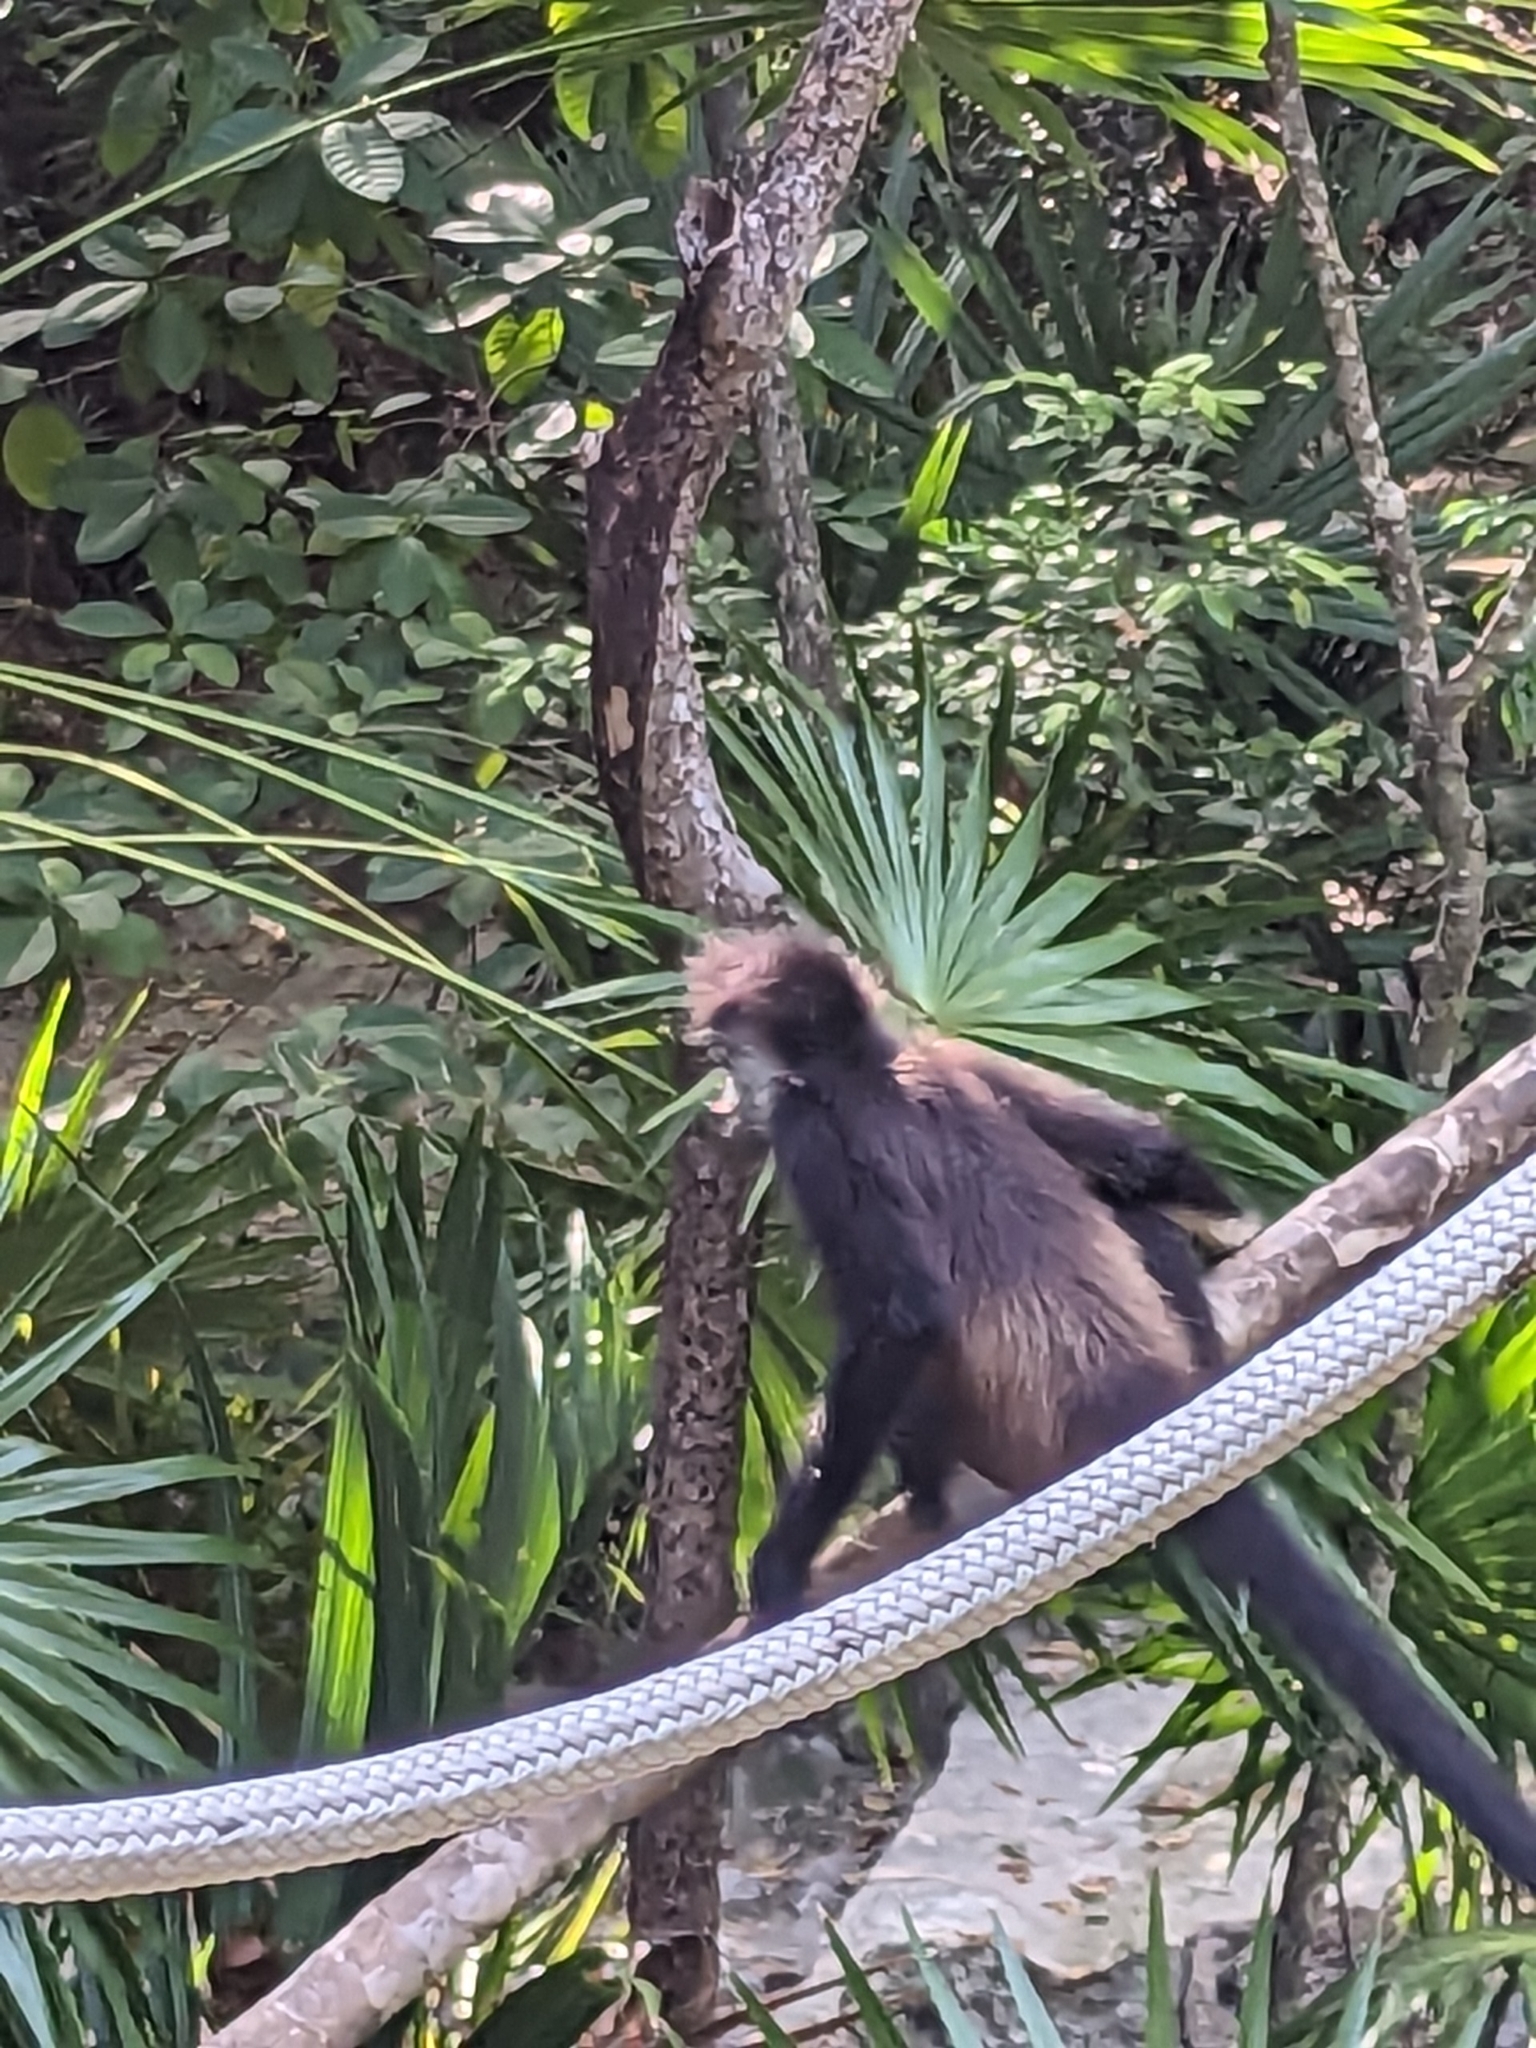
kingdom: Animalia
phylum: Chordata
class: Mammalia
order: Primates
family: Atelidae
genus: Ateles
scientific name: Ateles geoffroyi
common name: Black-handed spider monkey
